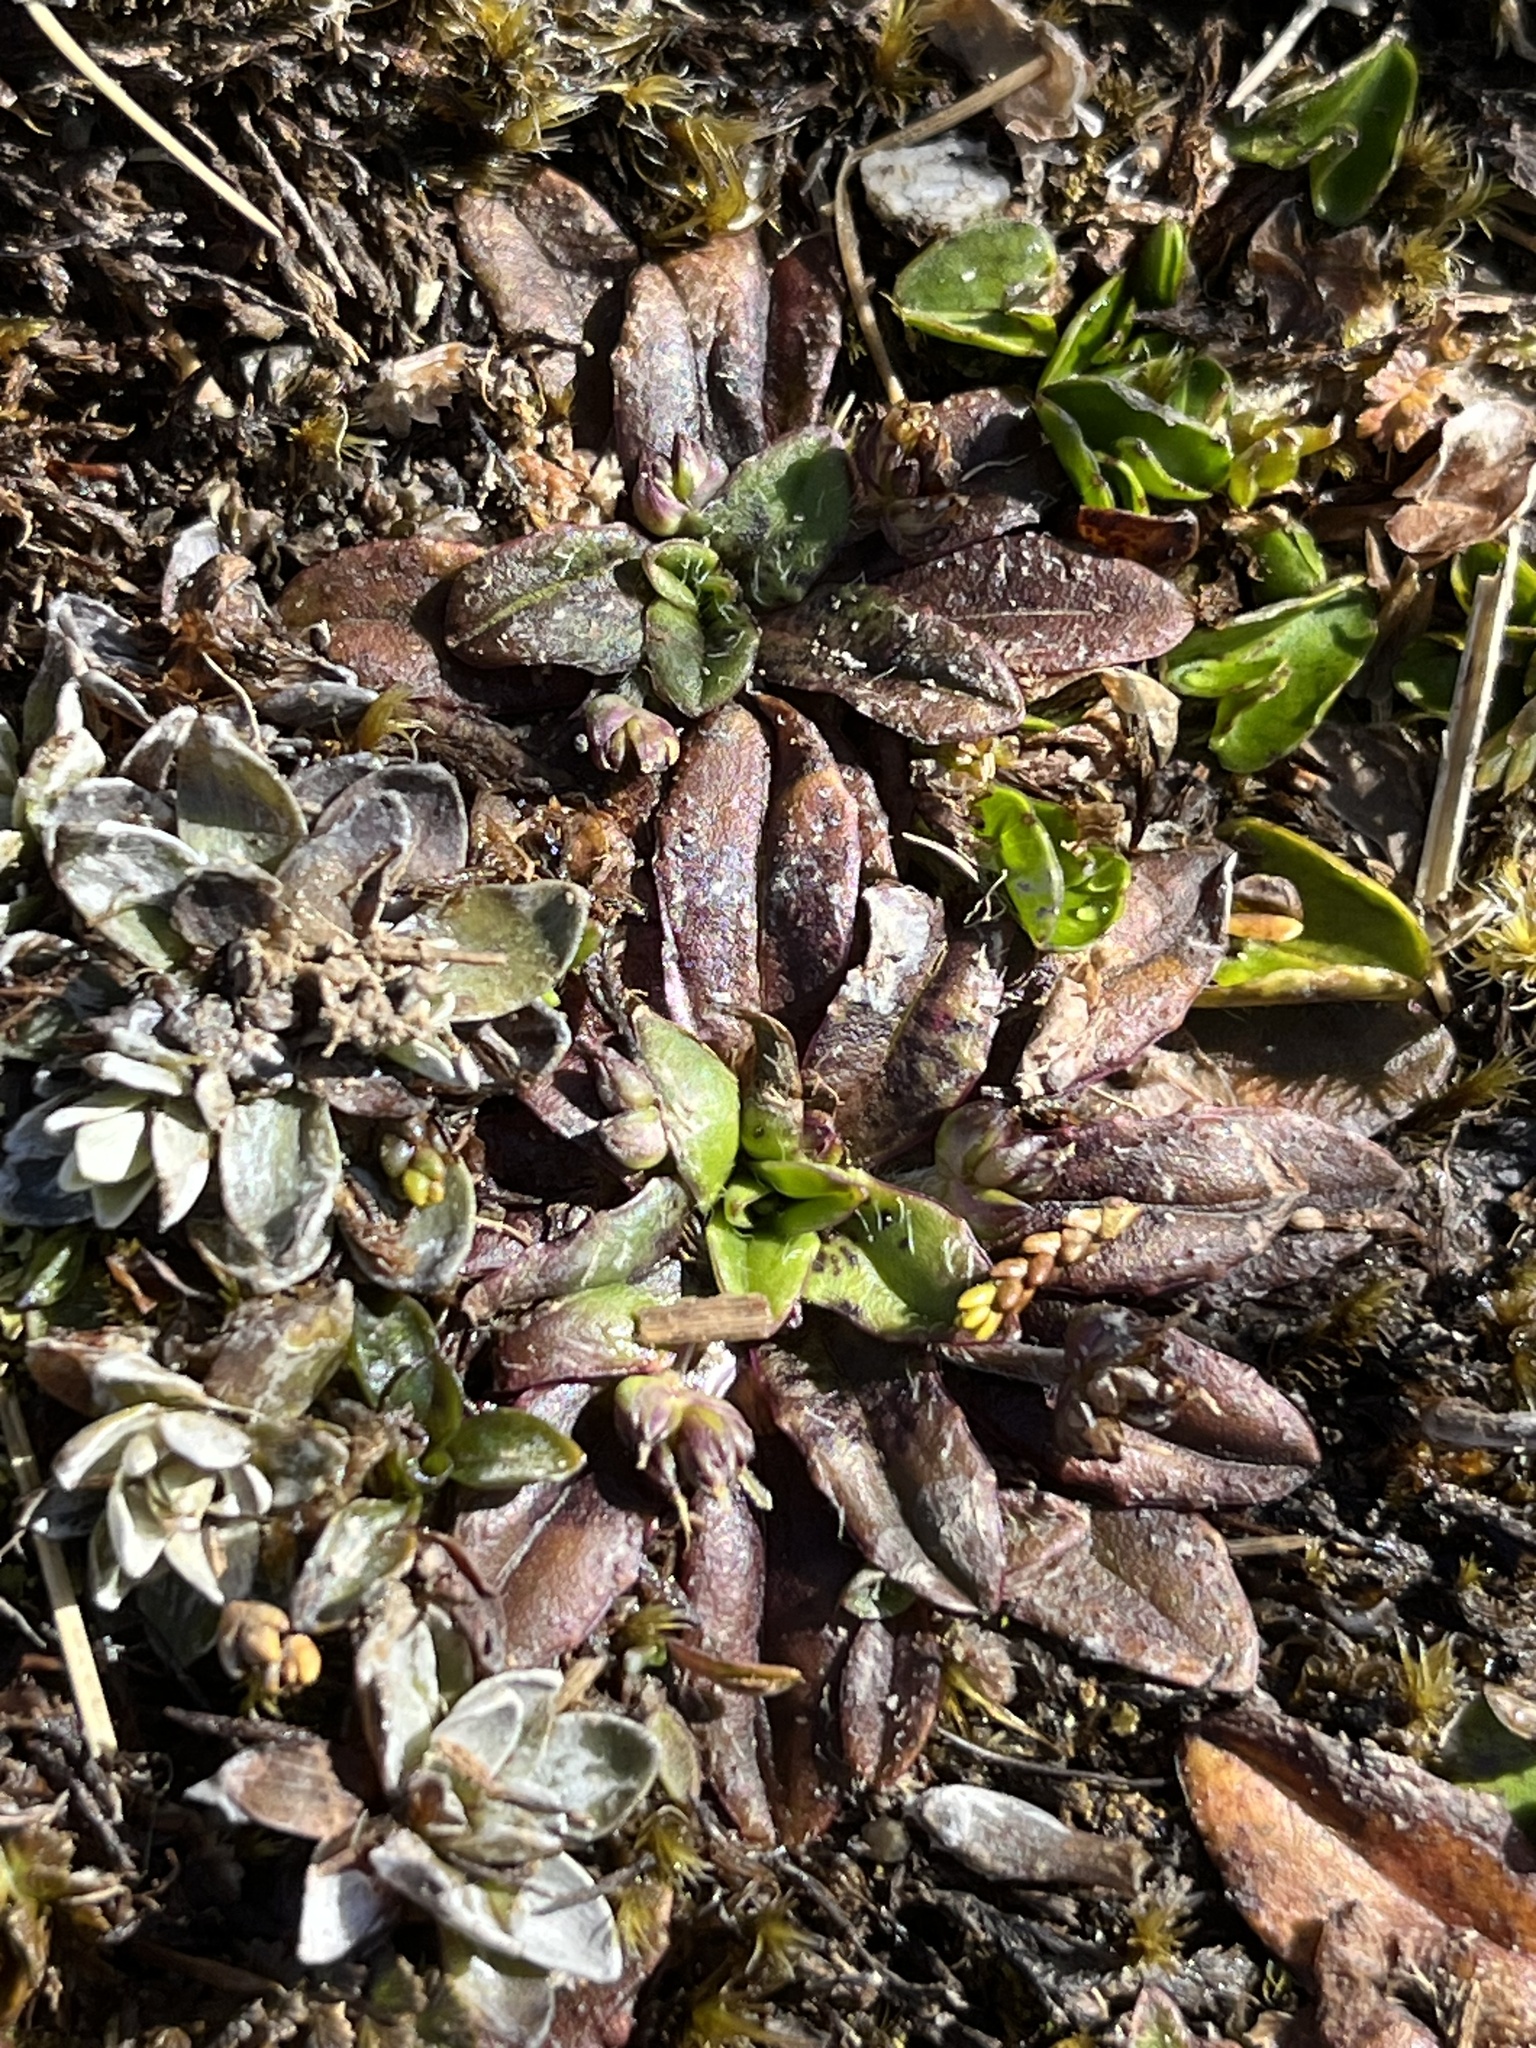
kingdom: Plantae
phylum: Tracheophyta
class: Magnoliopsida
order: Lamiales
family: Plantaginaceae
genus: Plantago
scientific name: Plantago triandra
